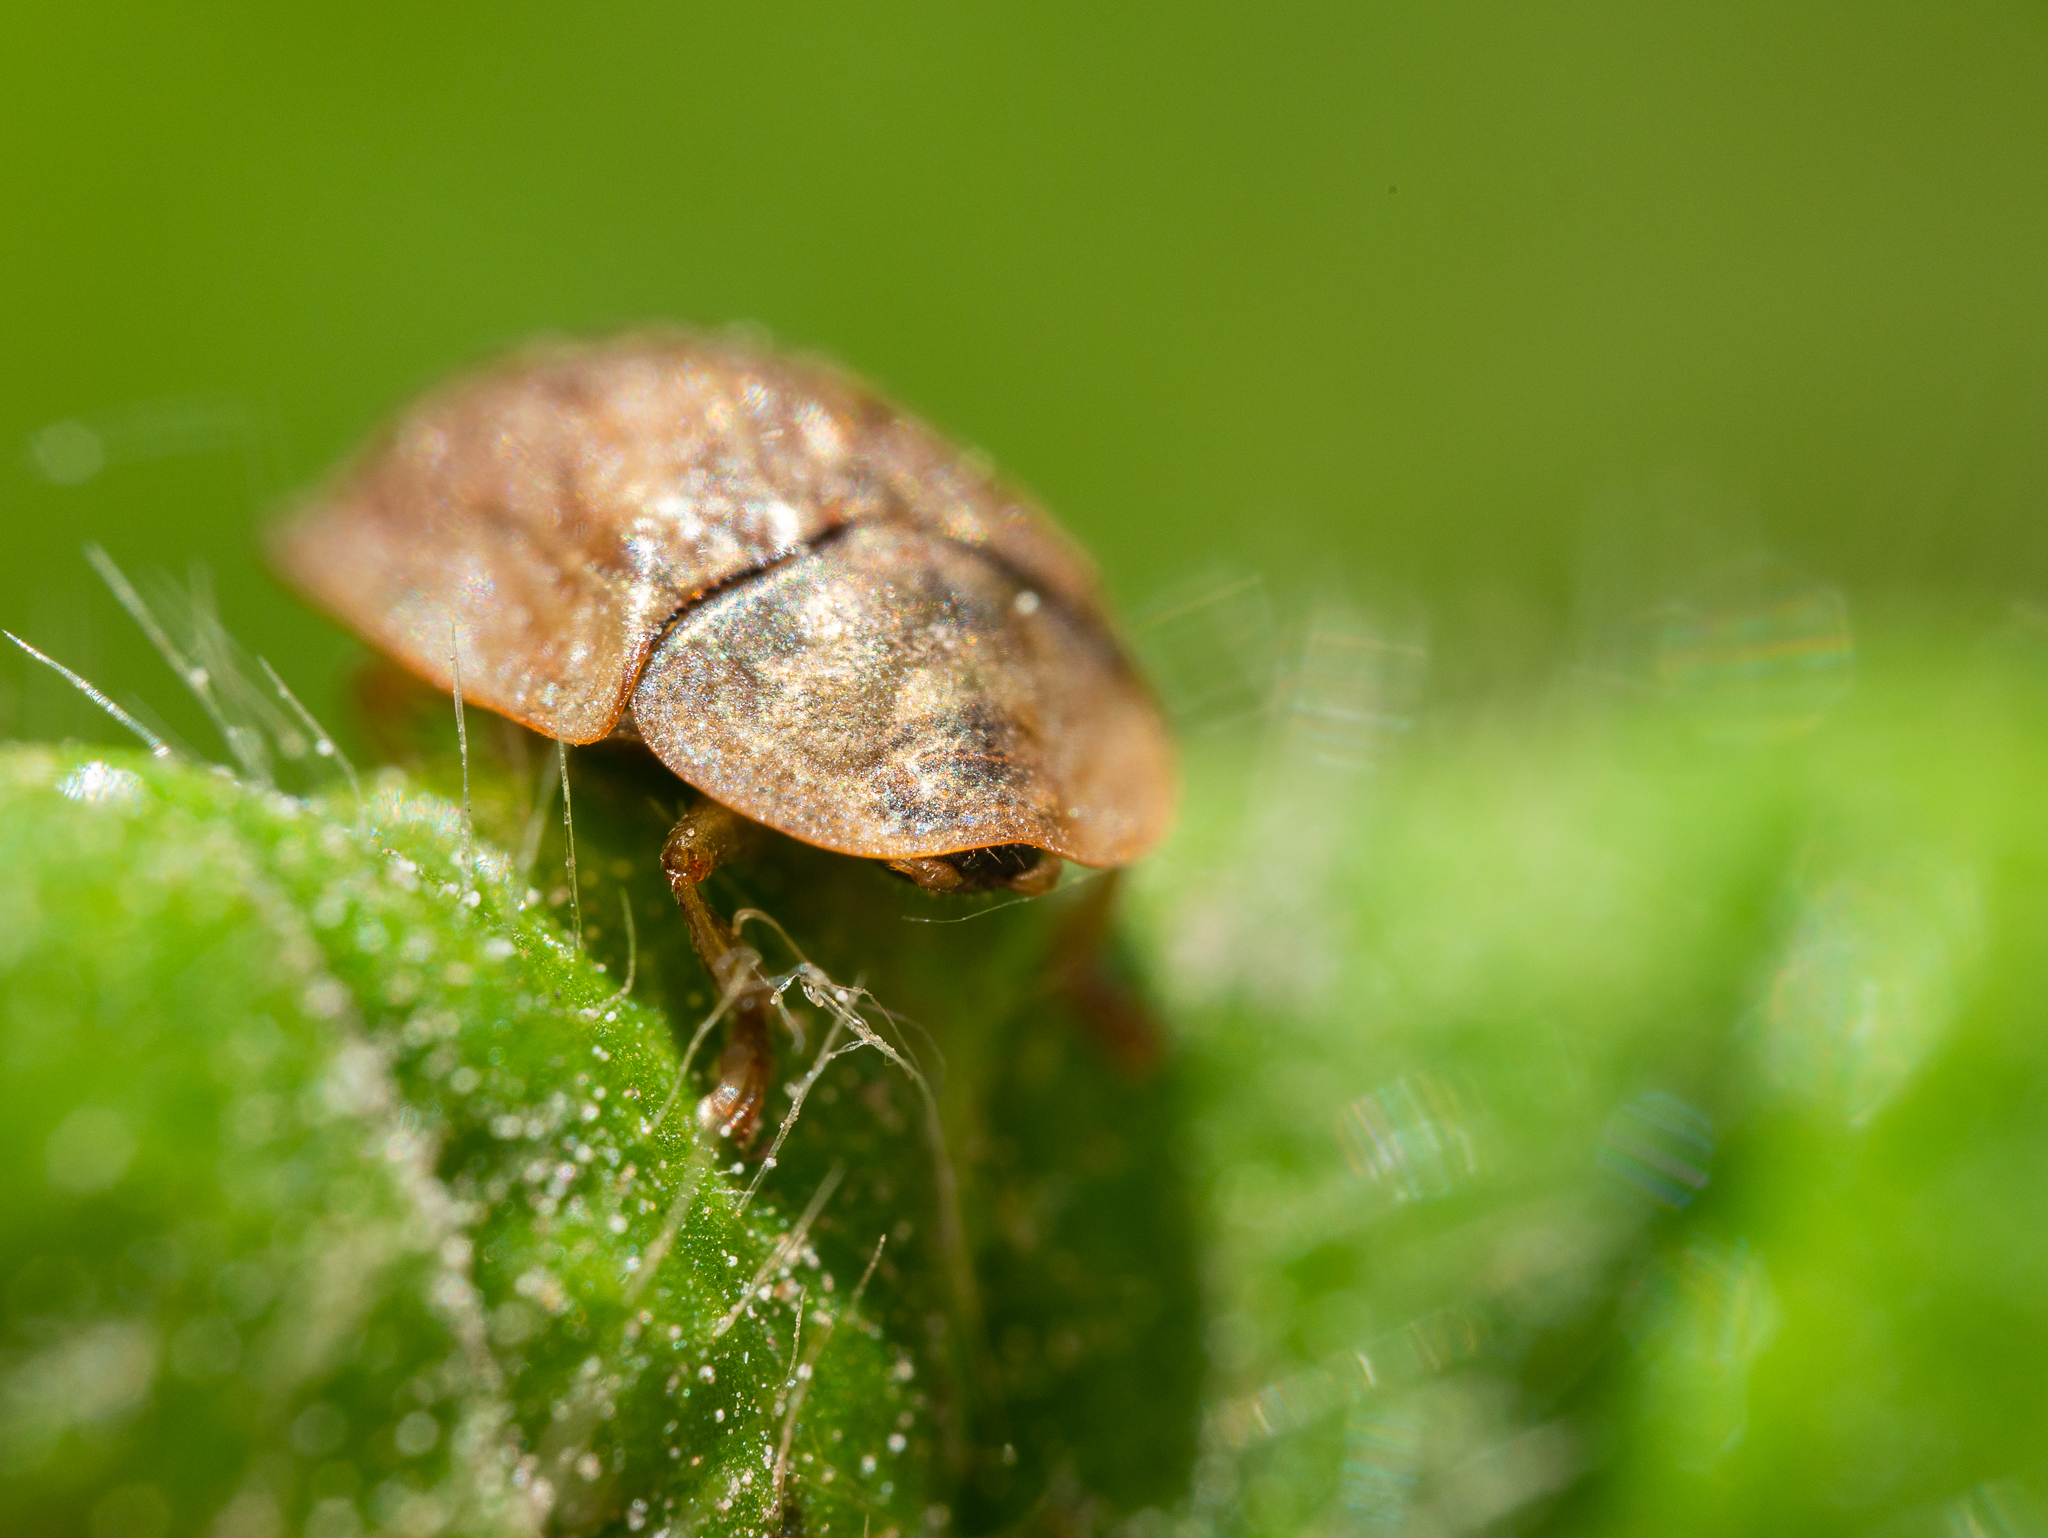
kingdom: Animalia
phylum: Arthropoda
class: Insecta
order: Coleoptera
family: Chrysomelidae
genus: Hypocassida
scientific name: Hypocassida subferruginea
